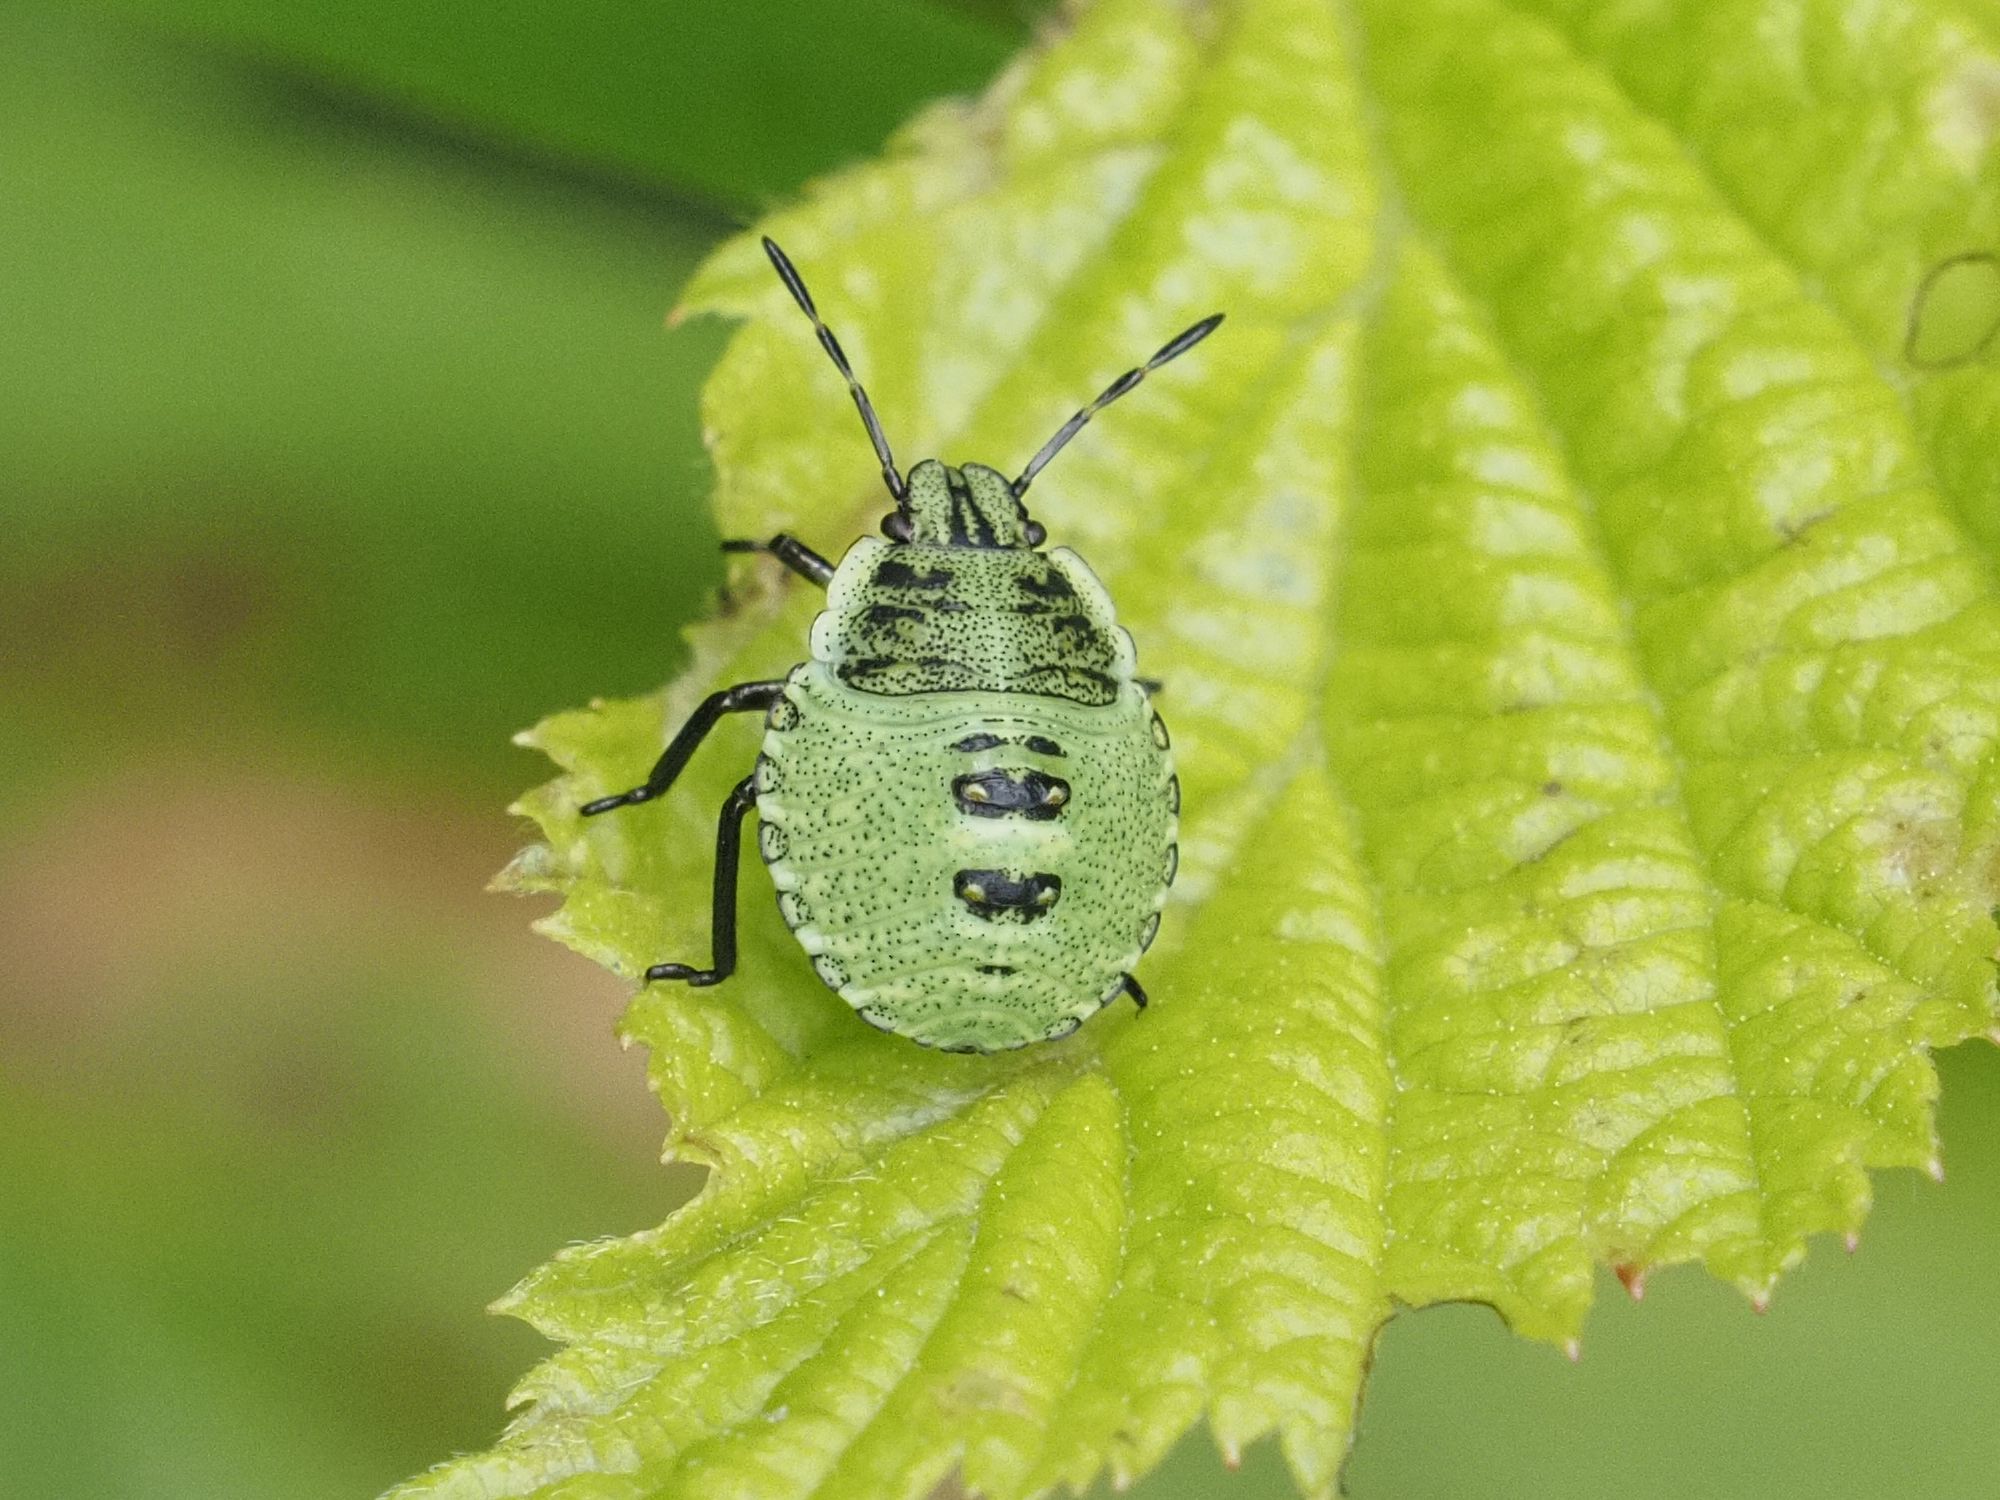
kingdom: Animalia
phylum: Arthropoda
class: Insecta
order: Hemiptera
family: Pentatomidae
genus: Palomena
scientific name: Palomena prasina
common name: Green shieldbug
